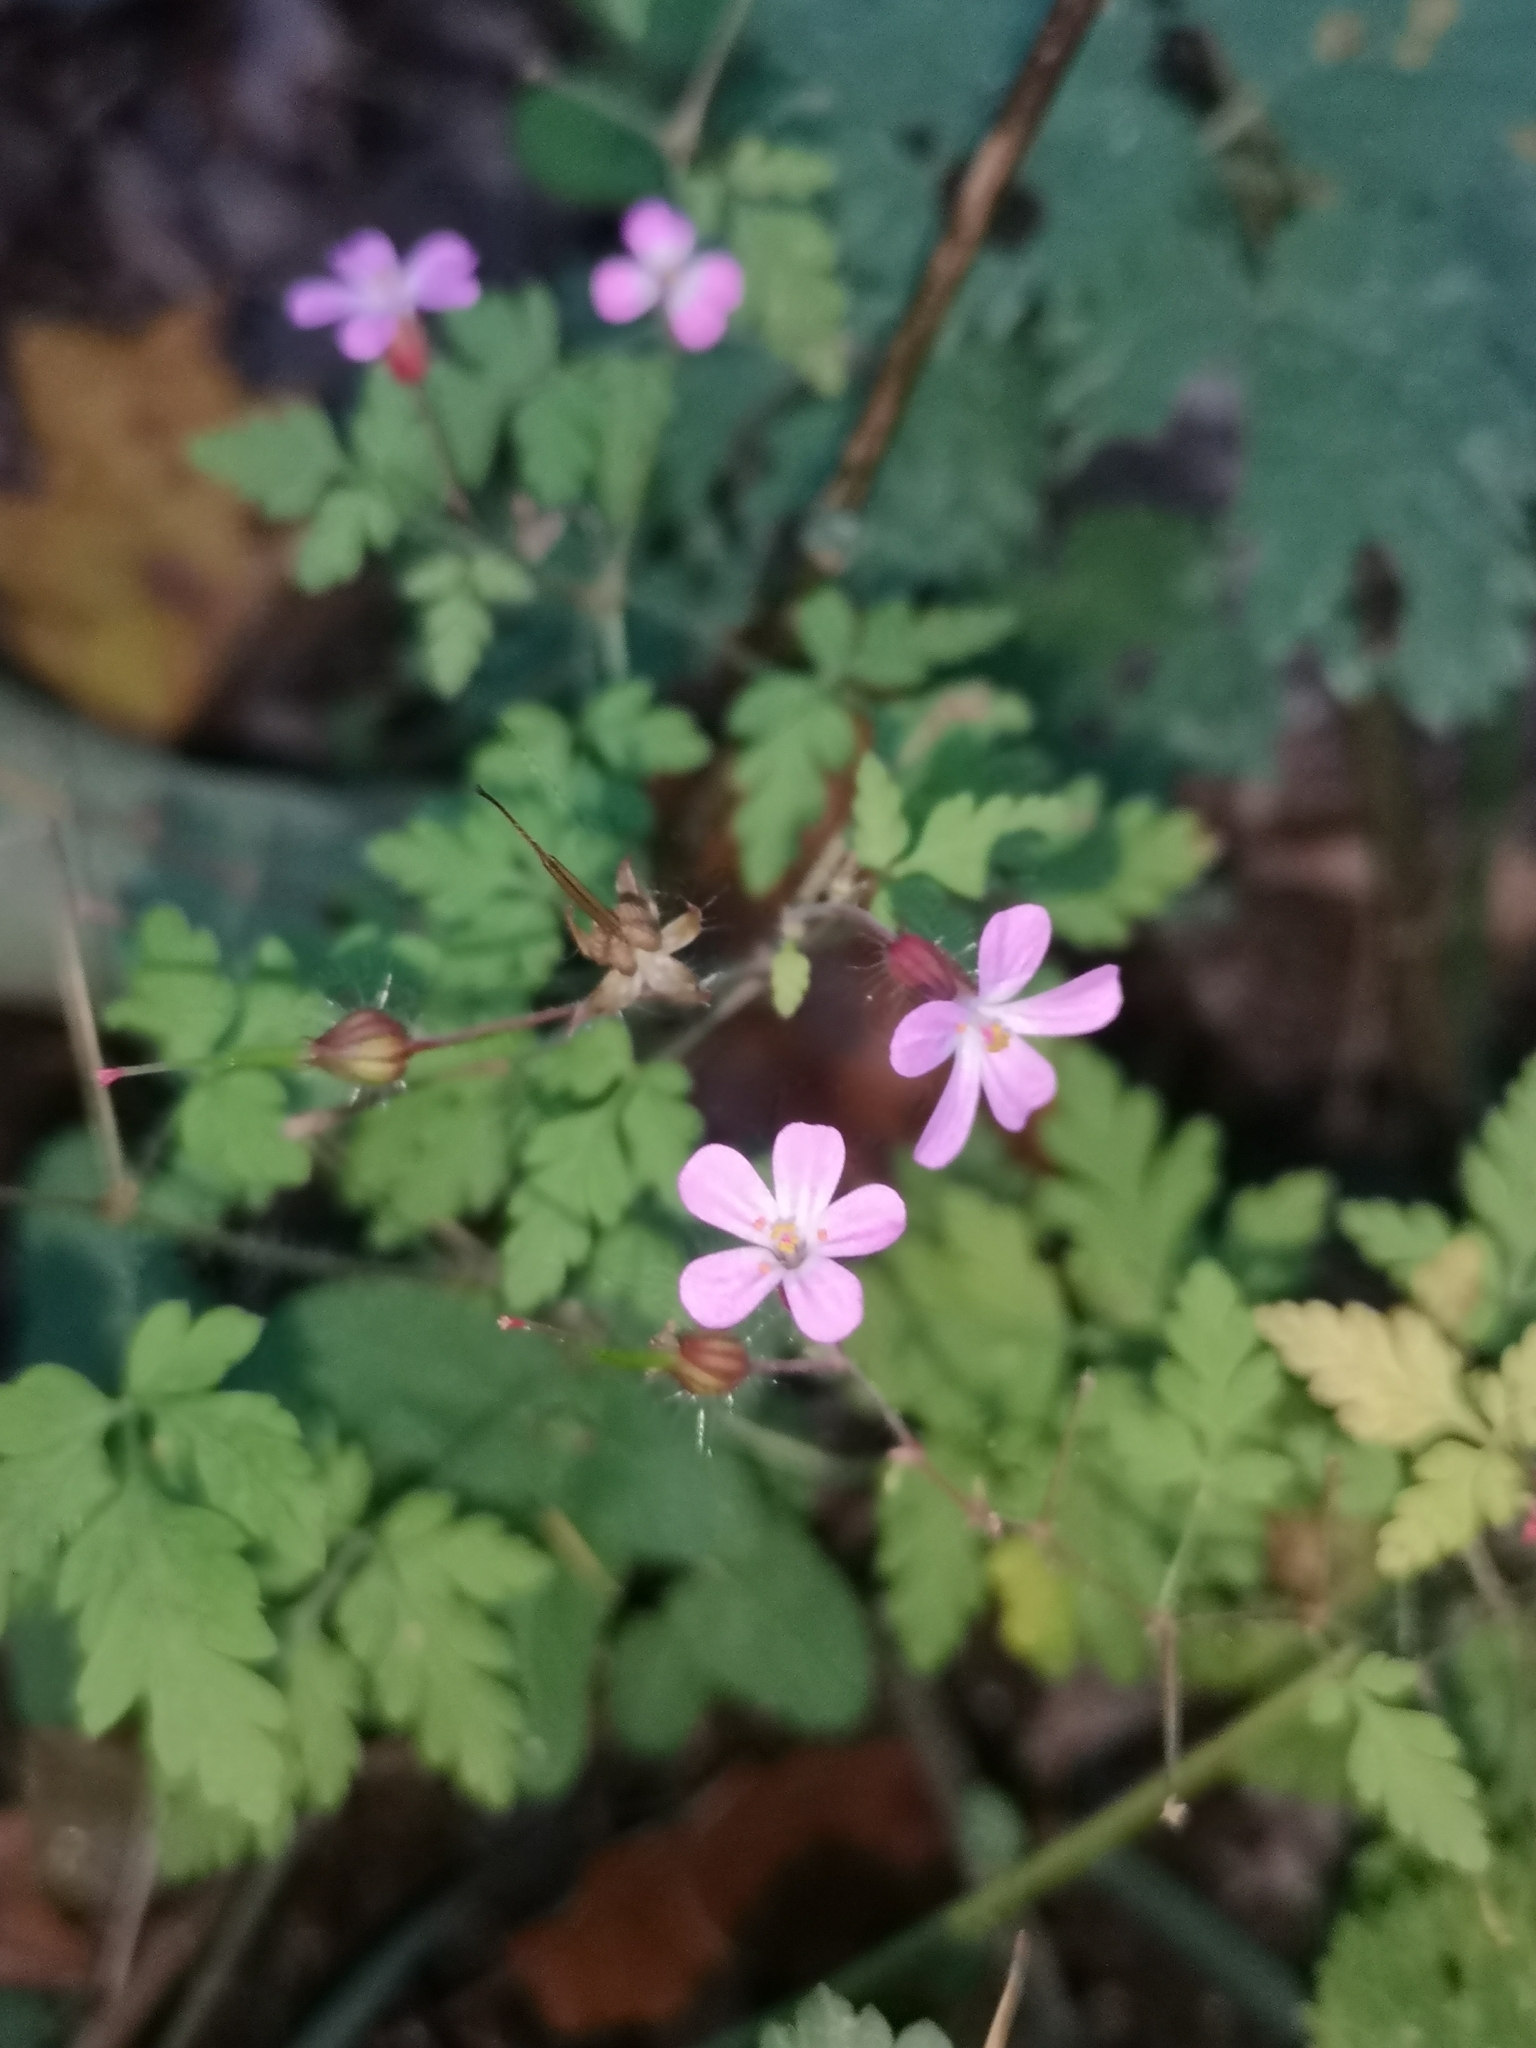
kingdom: Plantae
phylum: Tracheophyta
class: Magnoliopsida
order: Geraniales
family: Geraniaceae
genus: Geranium
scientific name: Geranium robertianum
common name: Herb-robert
